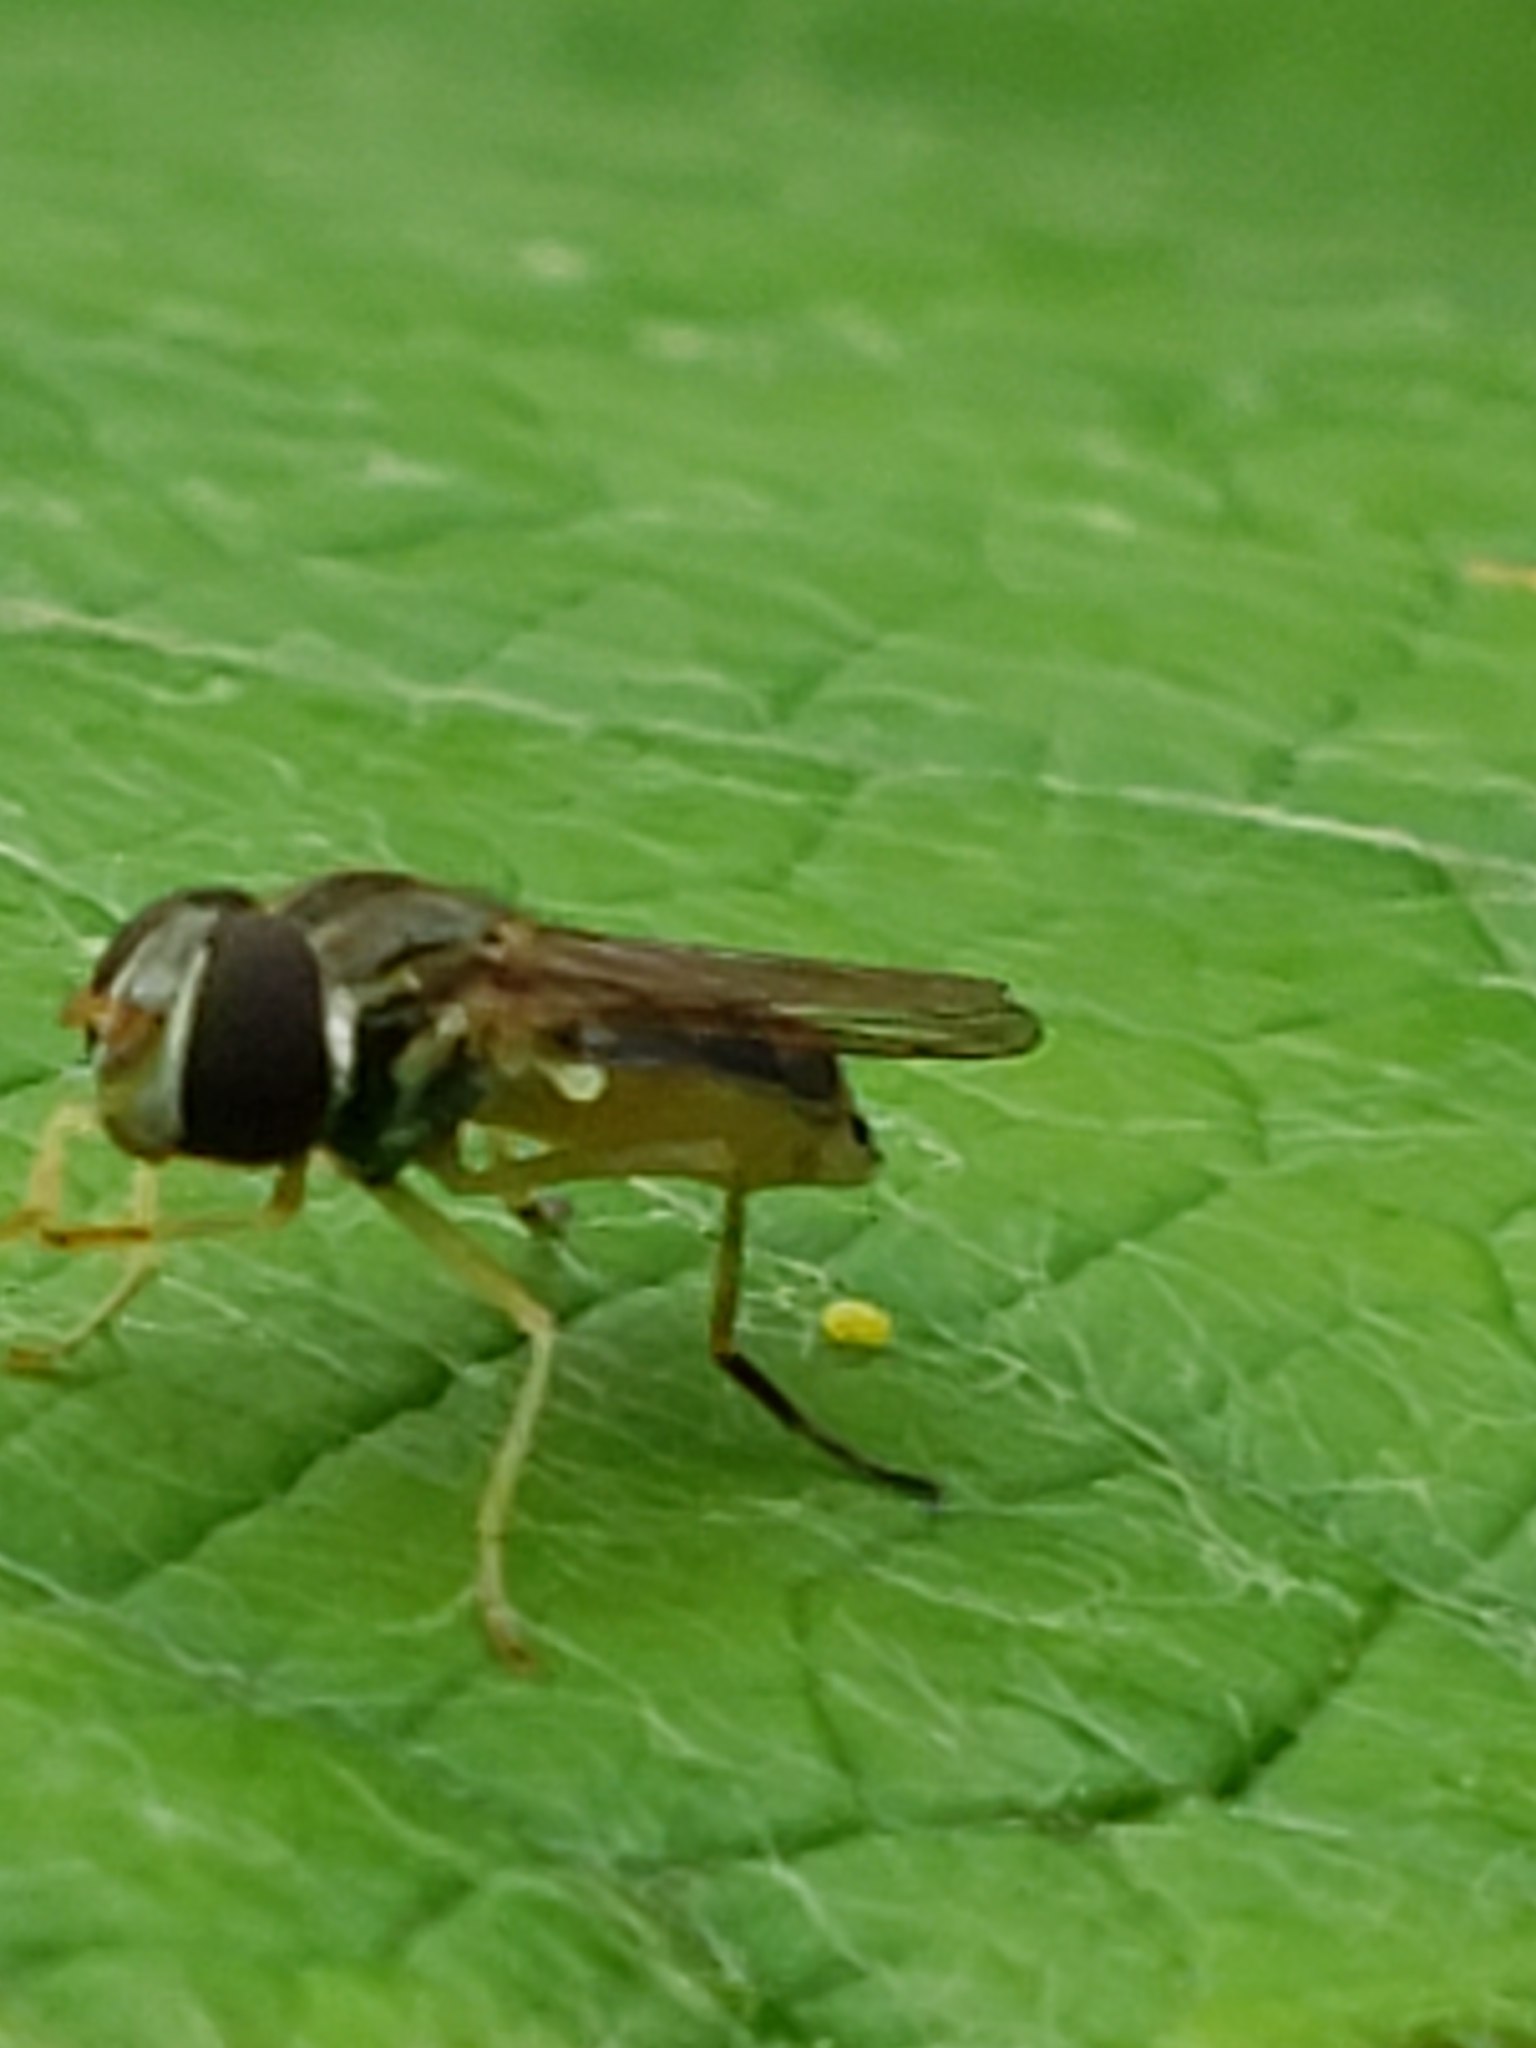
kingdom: Animalia
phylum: Arthropoda
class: Insecta
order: Diptera
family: Syrphidae
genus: Toxomerus
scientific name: Toxomerus marginatus
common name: Syrphid fly
